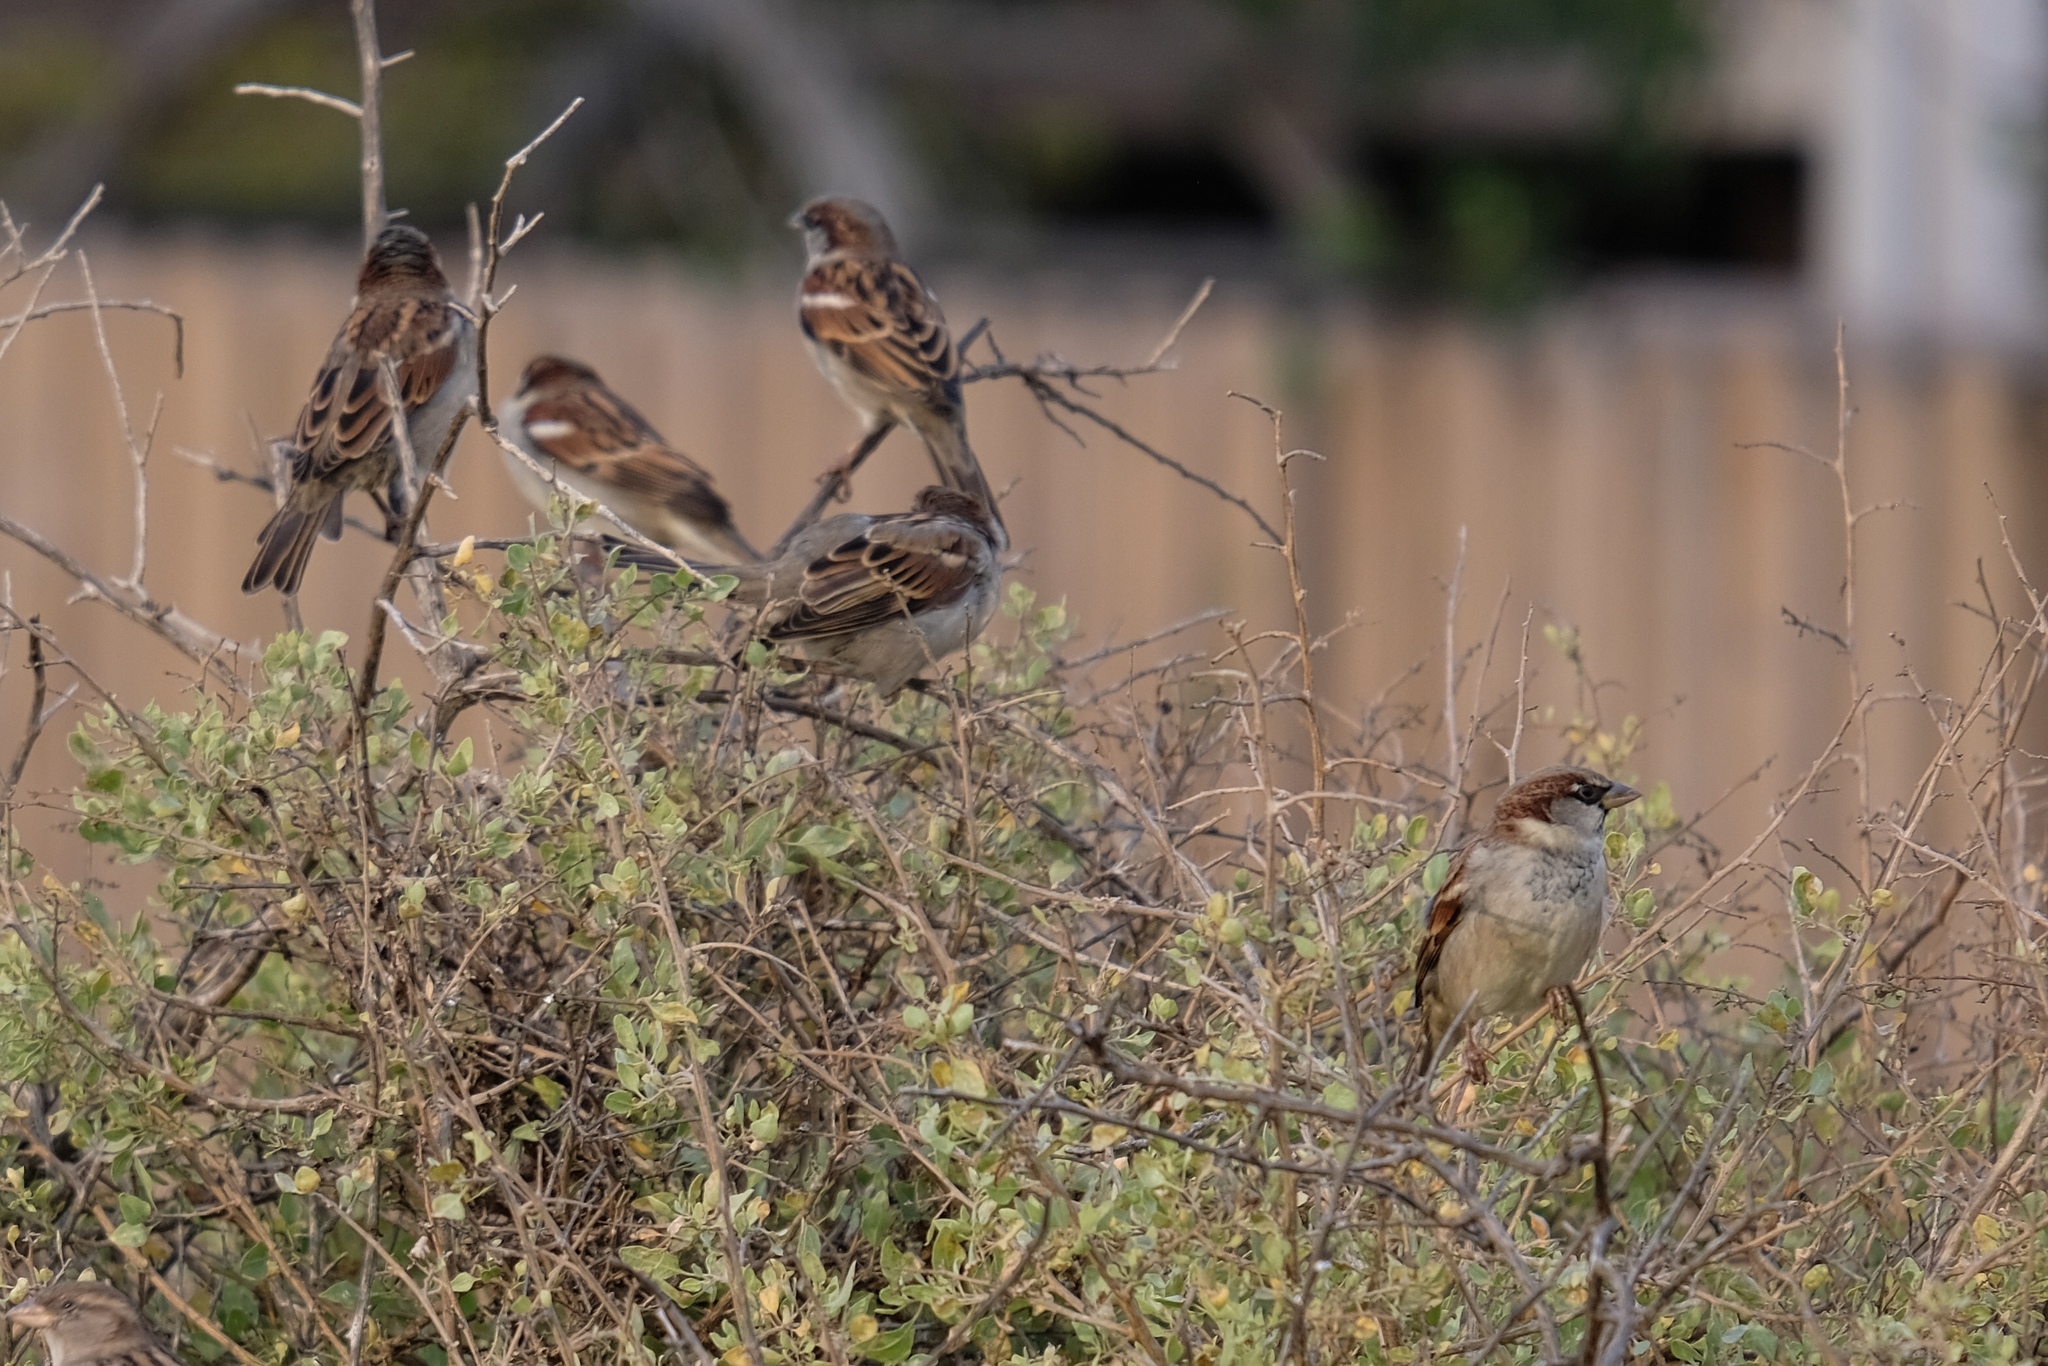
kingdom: Animalia
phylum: Chordata
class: Aves
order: Passeriformes
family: Passeridae
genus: Passer
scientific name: Passer domesticus
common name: House sparrow
